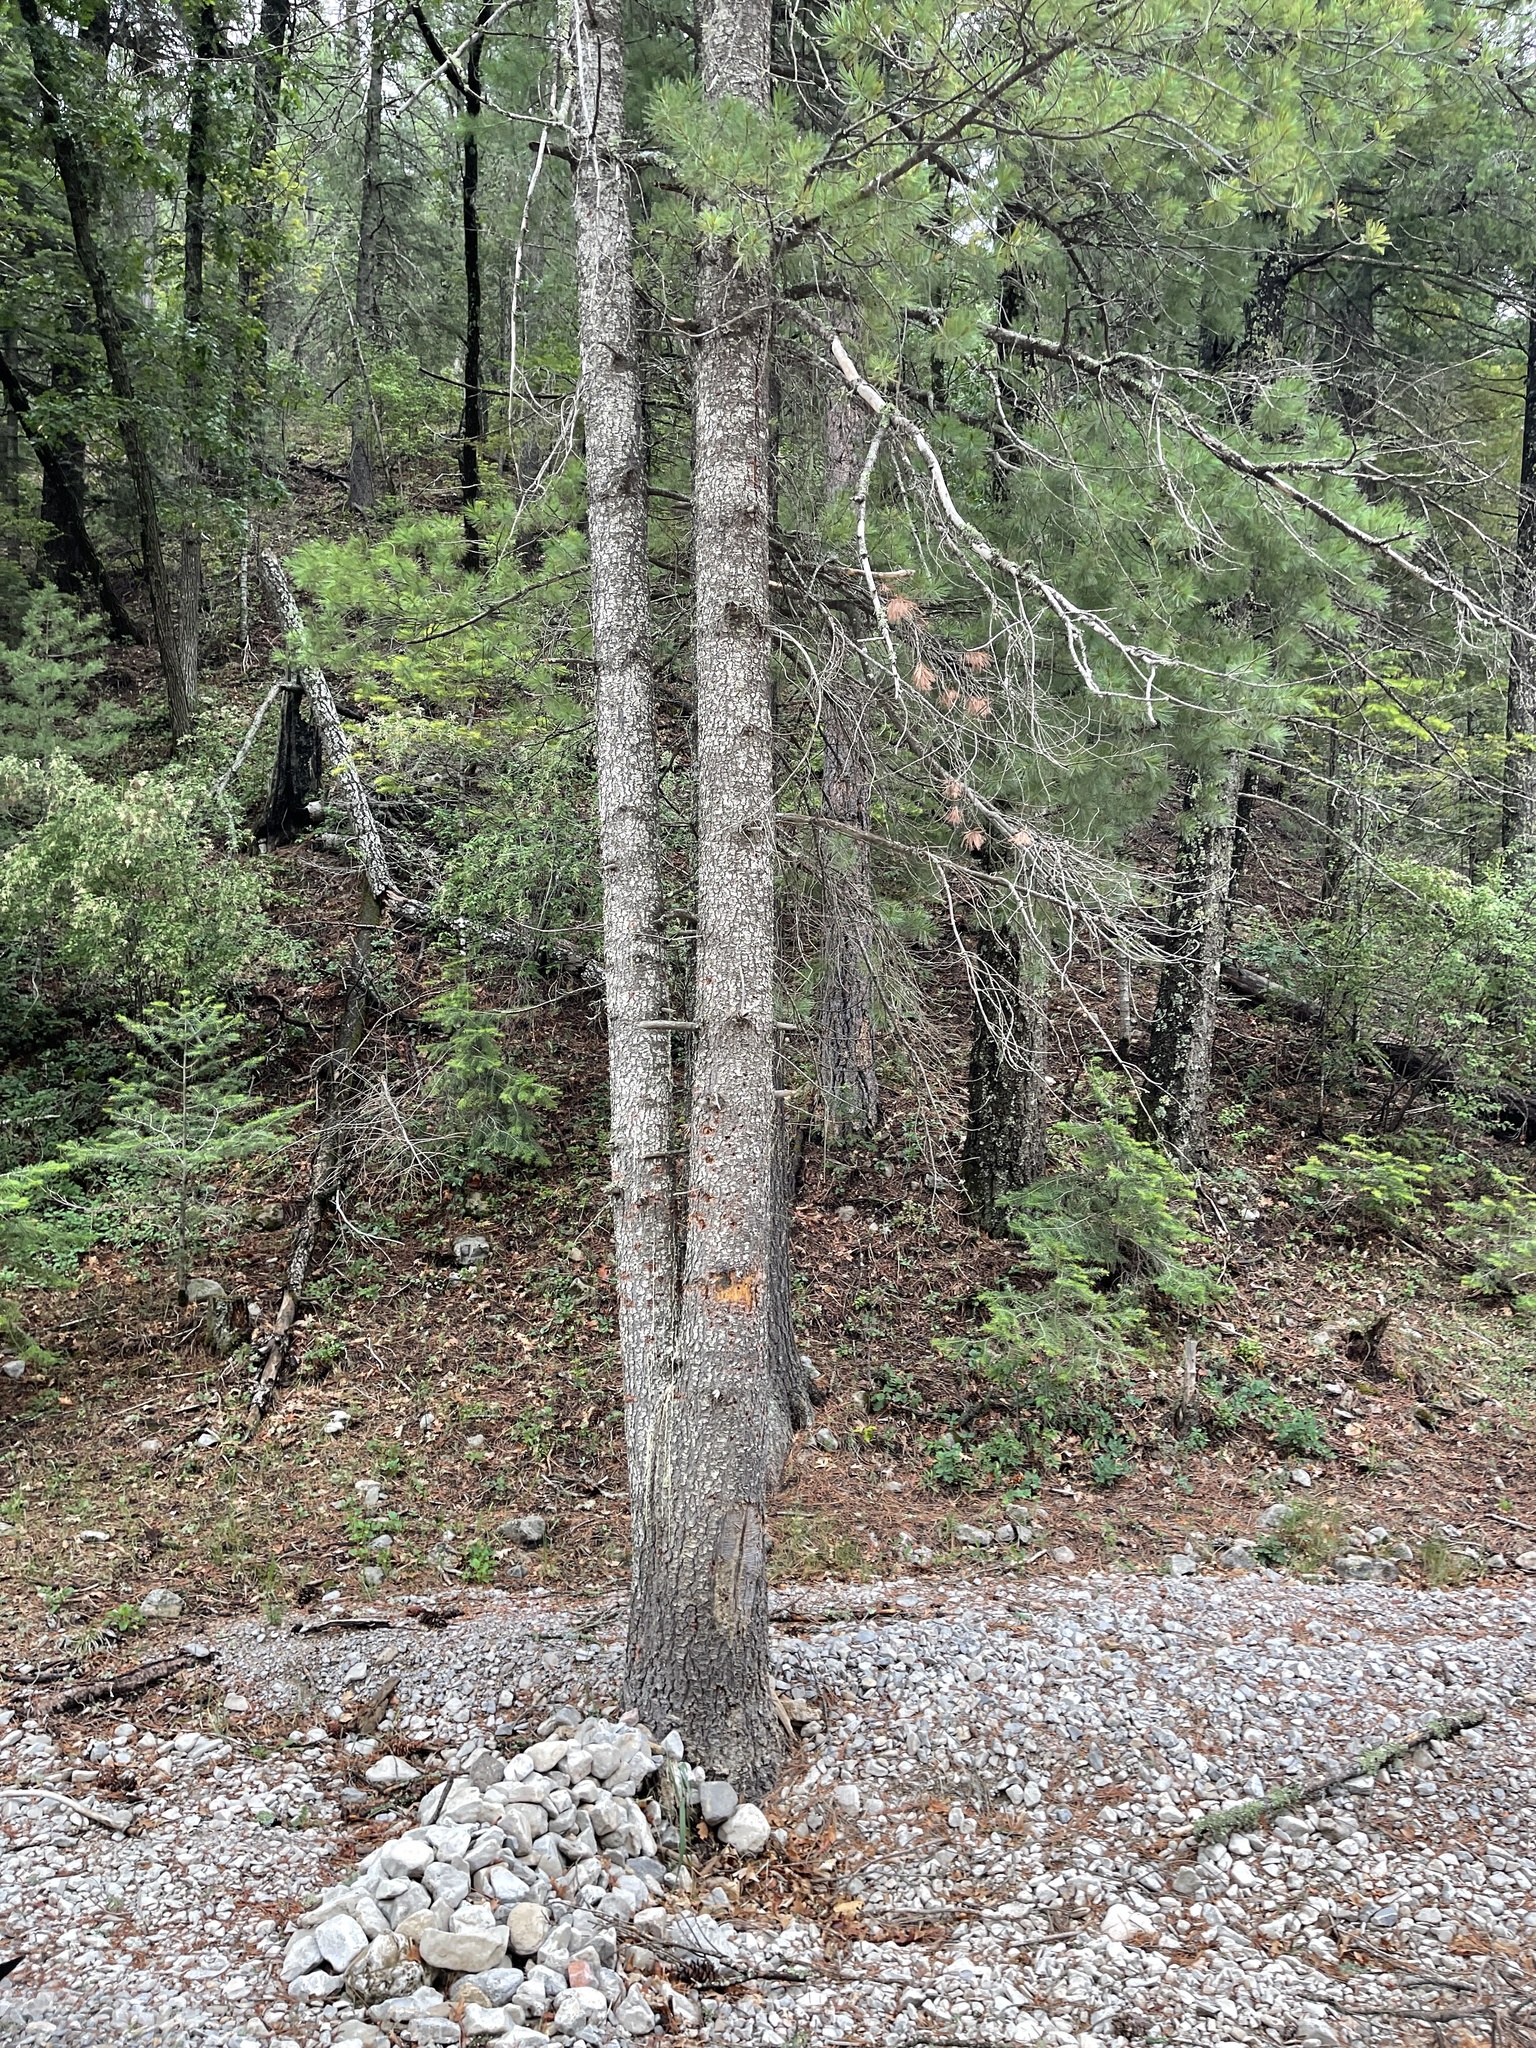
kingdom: Plantae
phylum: Tracheophyta
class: Pinopsida
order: Pinales
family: Pinaceae
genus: Pinus
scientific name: Pinus strobiformis
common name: Southwestern white pine
